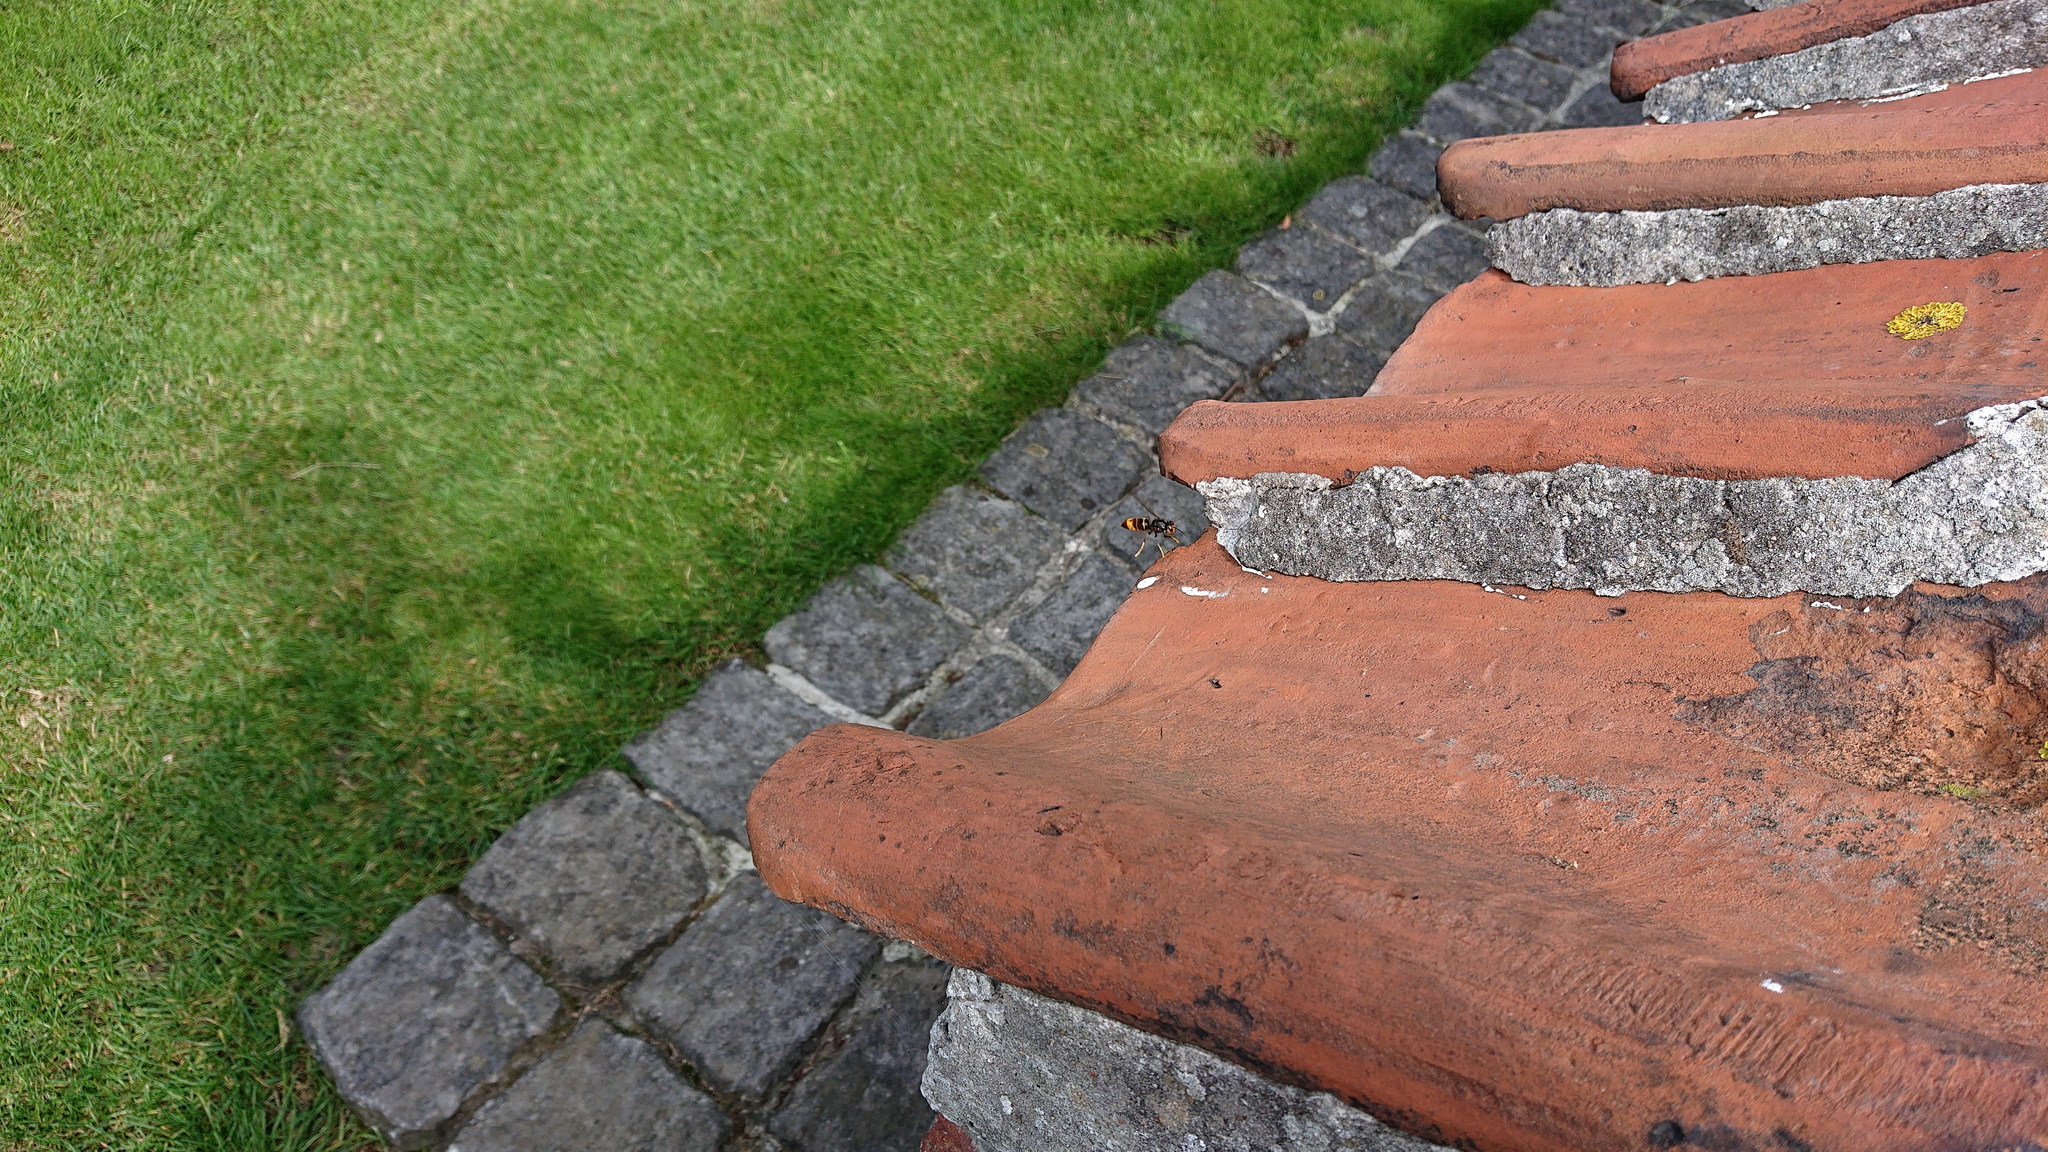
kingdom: Animalia
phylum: Arthropoda
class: Insecta
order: Hymenoptera
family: Vespidae
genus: Vespa
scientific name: Vespa velutina
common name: Asian hornet
